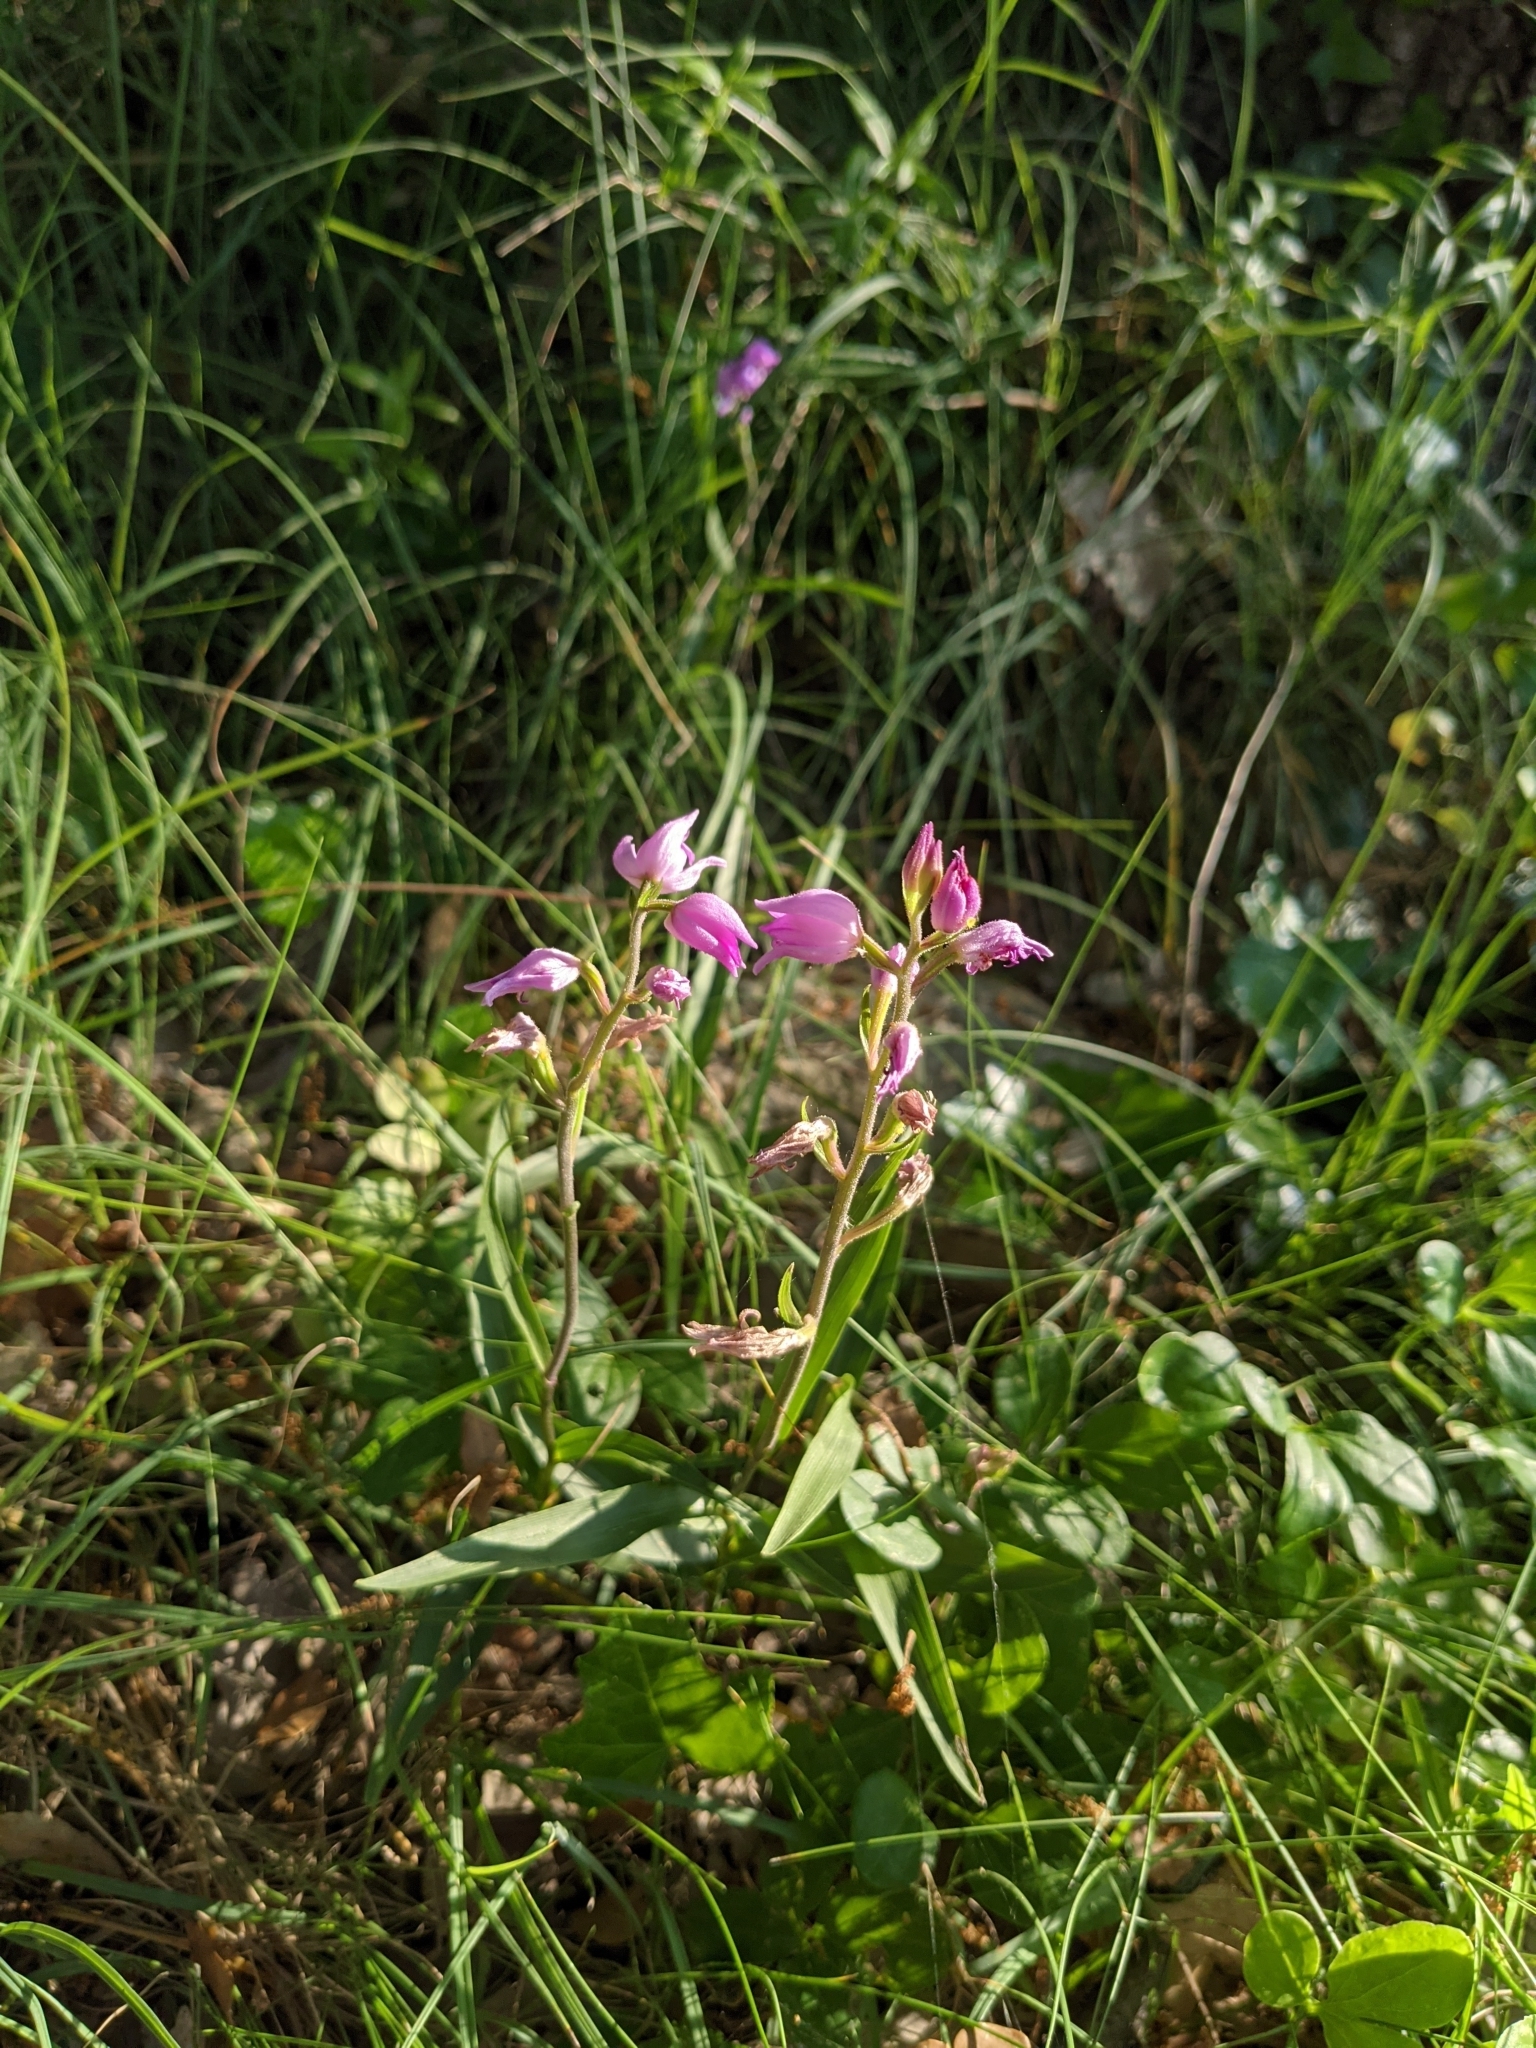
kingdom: Plantae
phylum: Tracheophyta
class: Liliopsida
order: Asparagales
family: Orchidaceae
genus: Cephalanthera
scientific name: Cephalanthera rubra
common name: Red helleborine
